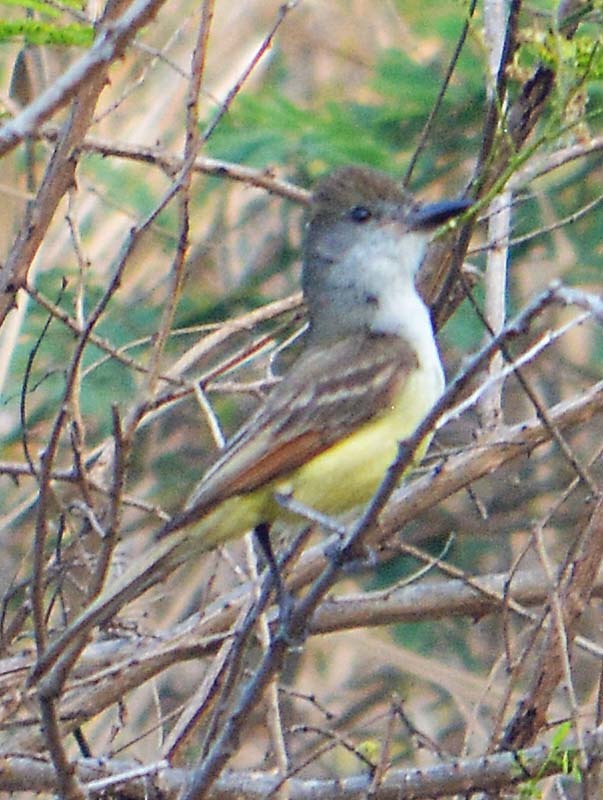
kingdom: Animalia
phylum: Chordata
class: Aves
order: Passeriformes
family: Tyrannidae
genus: Myiarchus
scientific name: Myiarchus tyrannulus
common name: Brown-crested flycatcher
